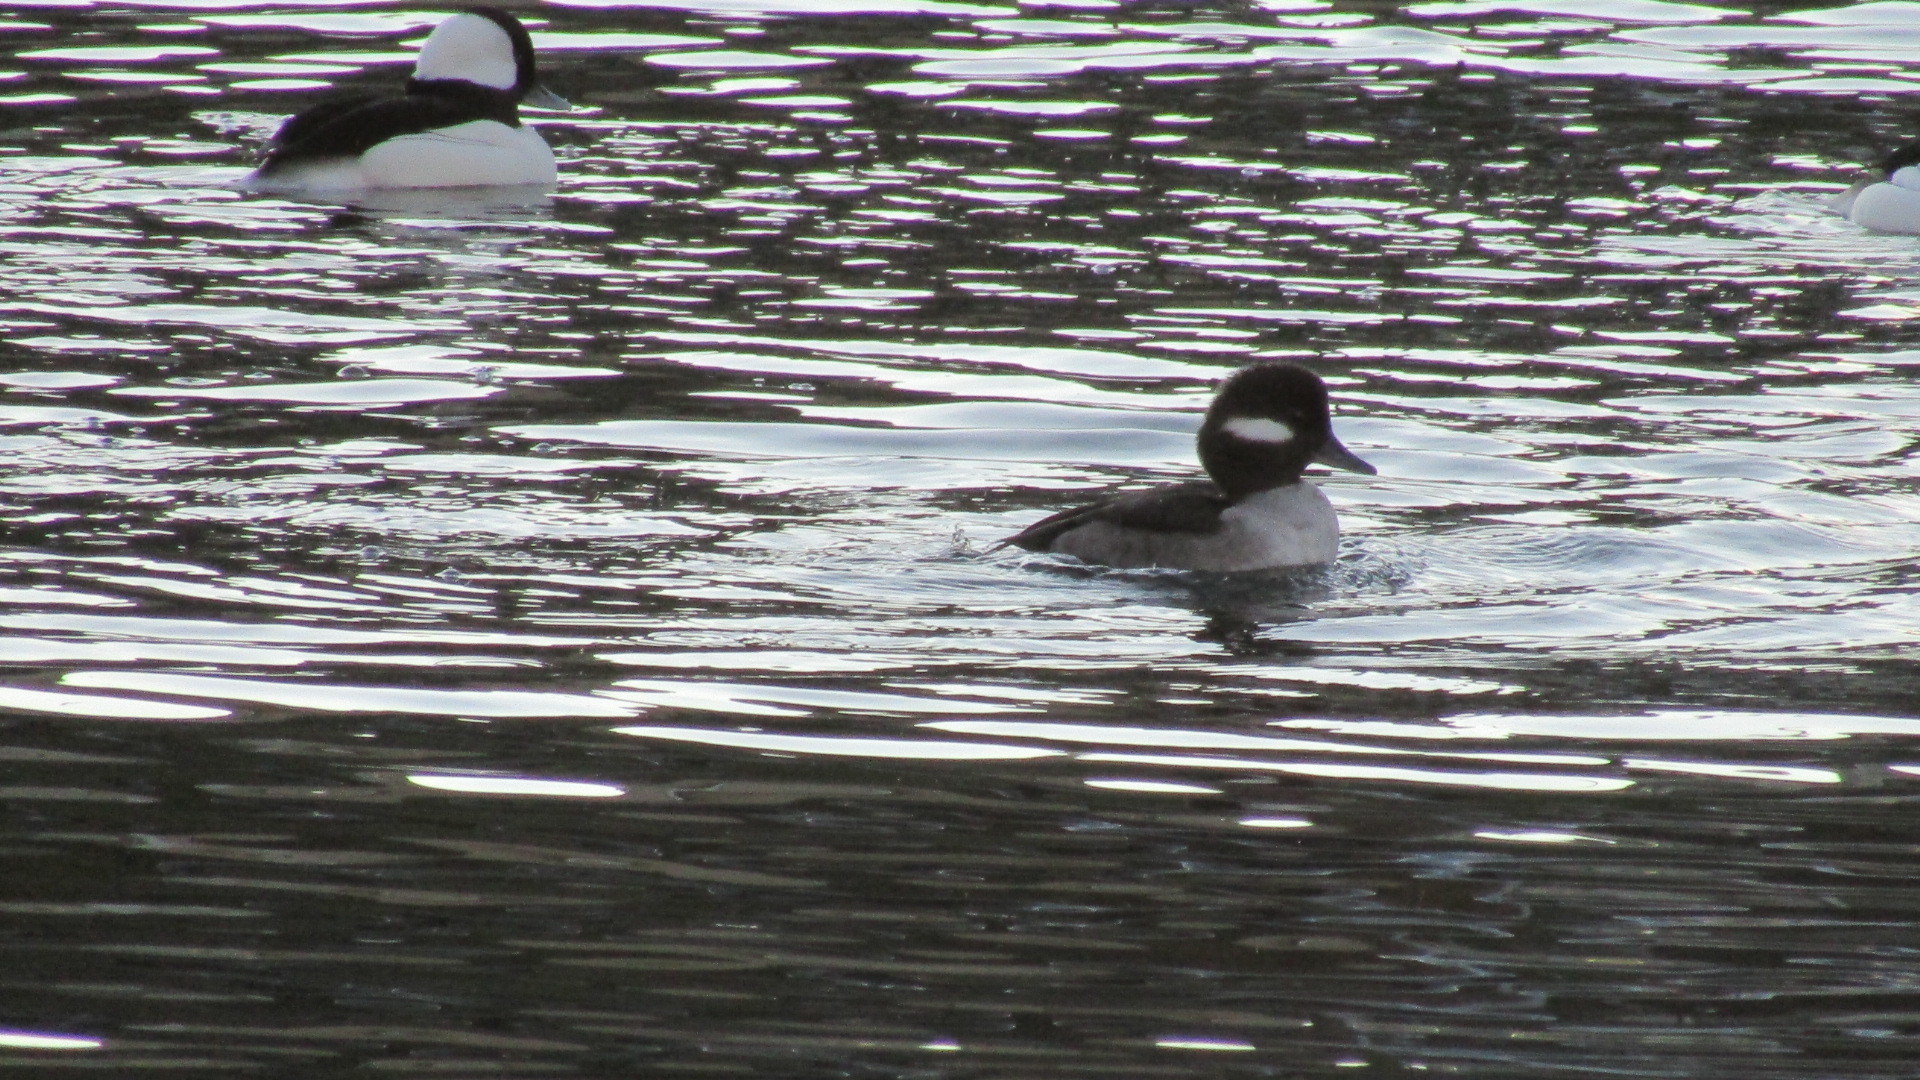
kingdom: Animalia
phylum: Chordata
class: Aves
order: Anseriformes
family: Anatidae
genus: Bucephala
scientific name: Bucephala albeola
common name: Bufflehead
